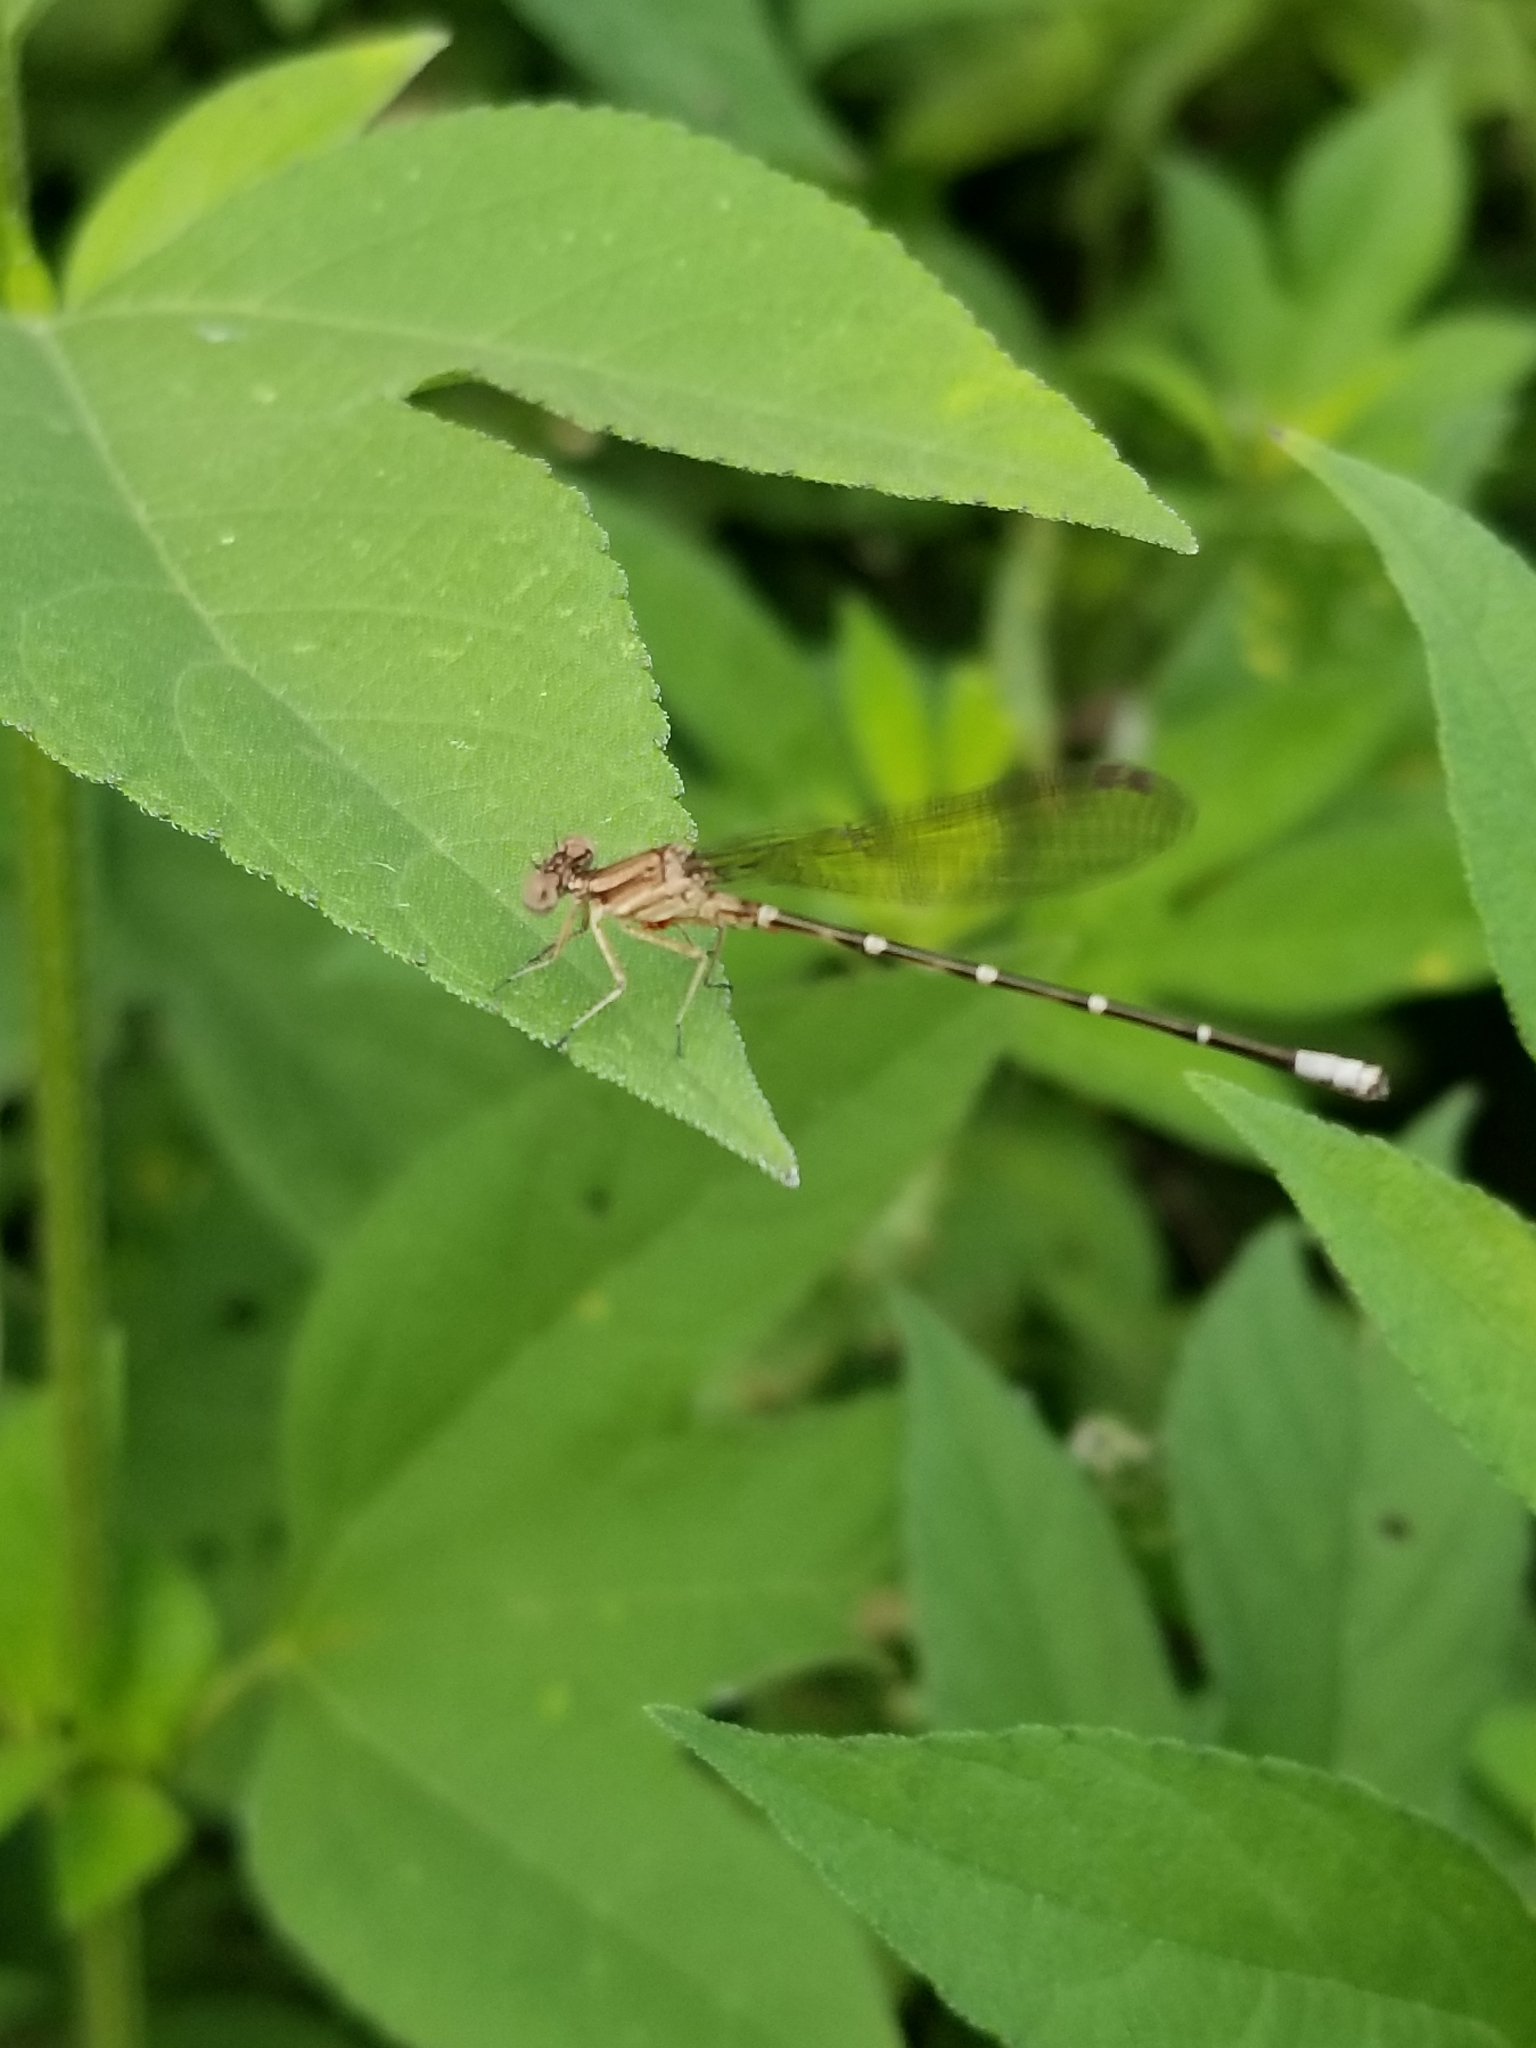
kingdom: Animalia
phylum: Arthropoda
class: Insecta
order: Odonata
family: Coenagrionidae
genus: Argia
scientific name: Argia sedula
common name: Blue-ringed dancer
